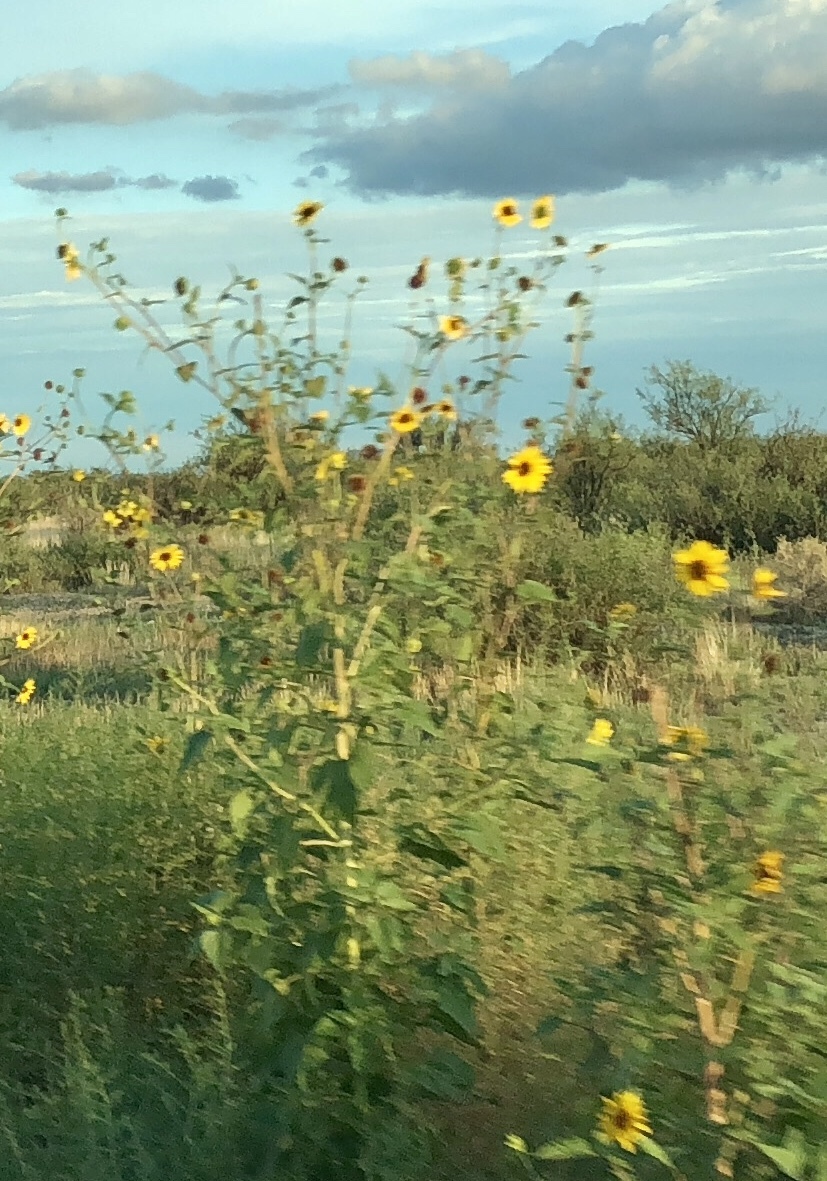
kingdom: Plantae
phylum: Tracheophyta
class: Magnoliopsida
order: Asterales
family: Asteraceae
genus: Helianthus
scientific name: Helianthus annuus
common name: Sunflower
